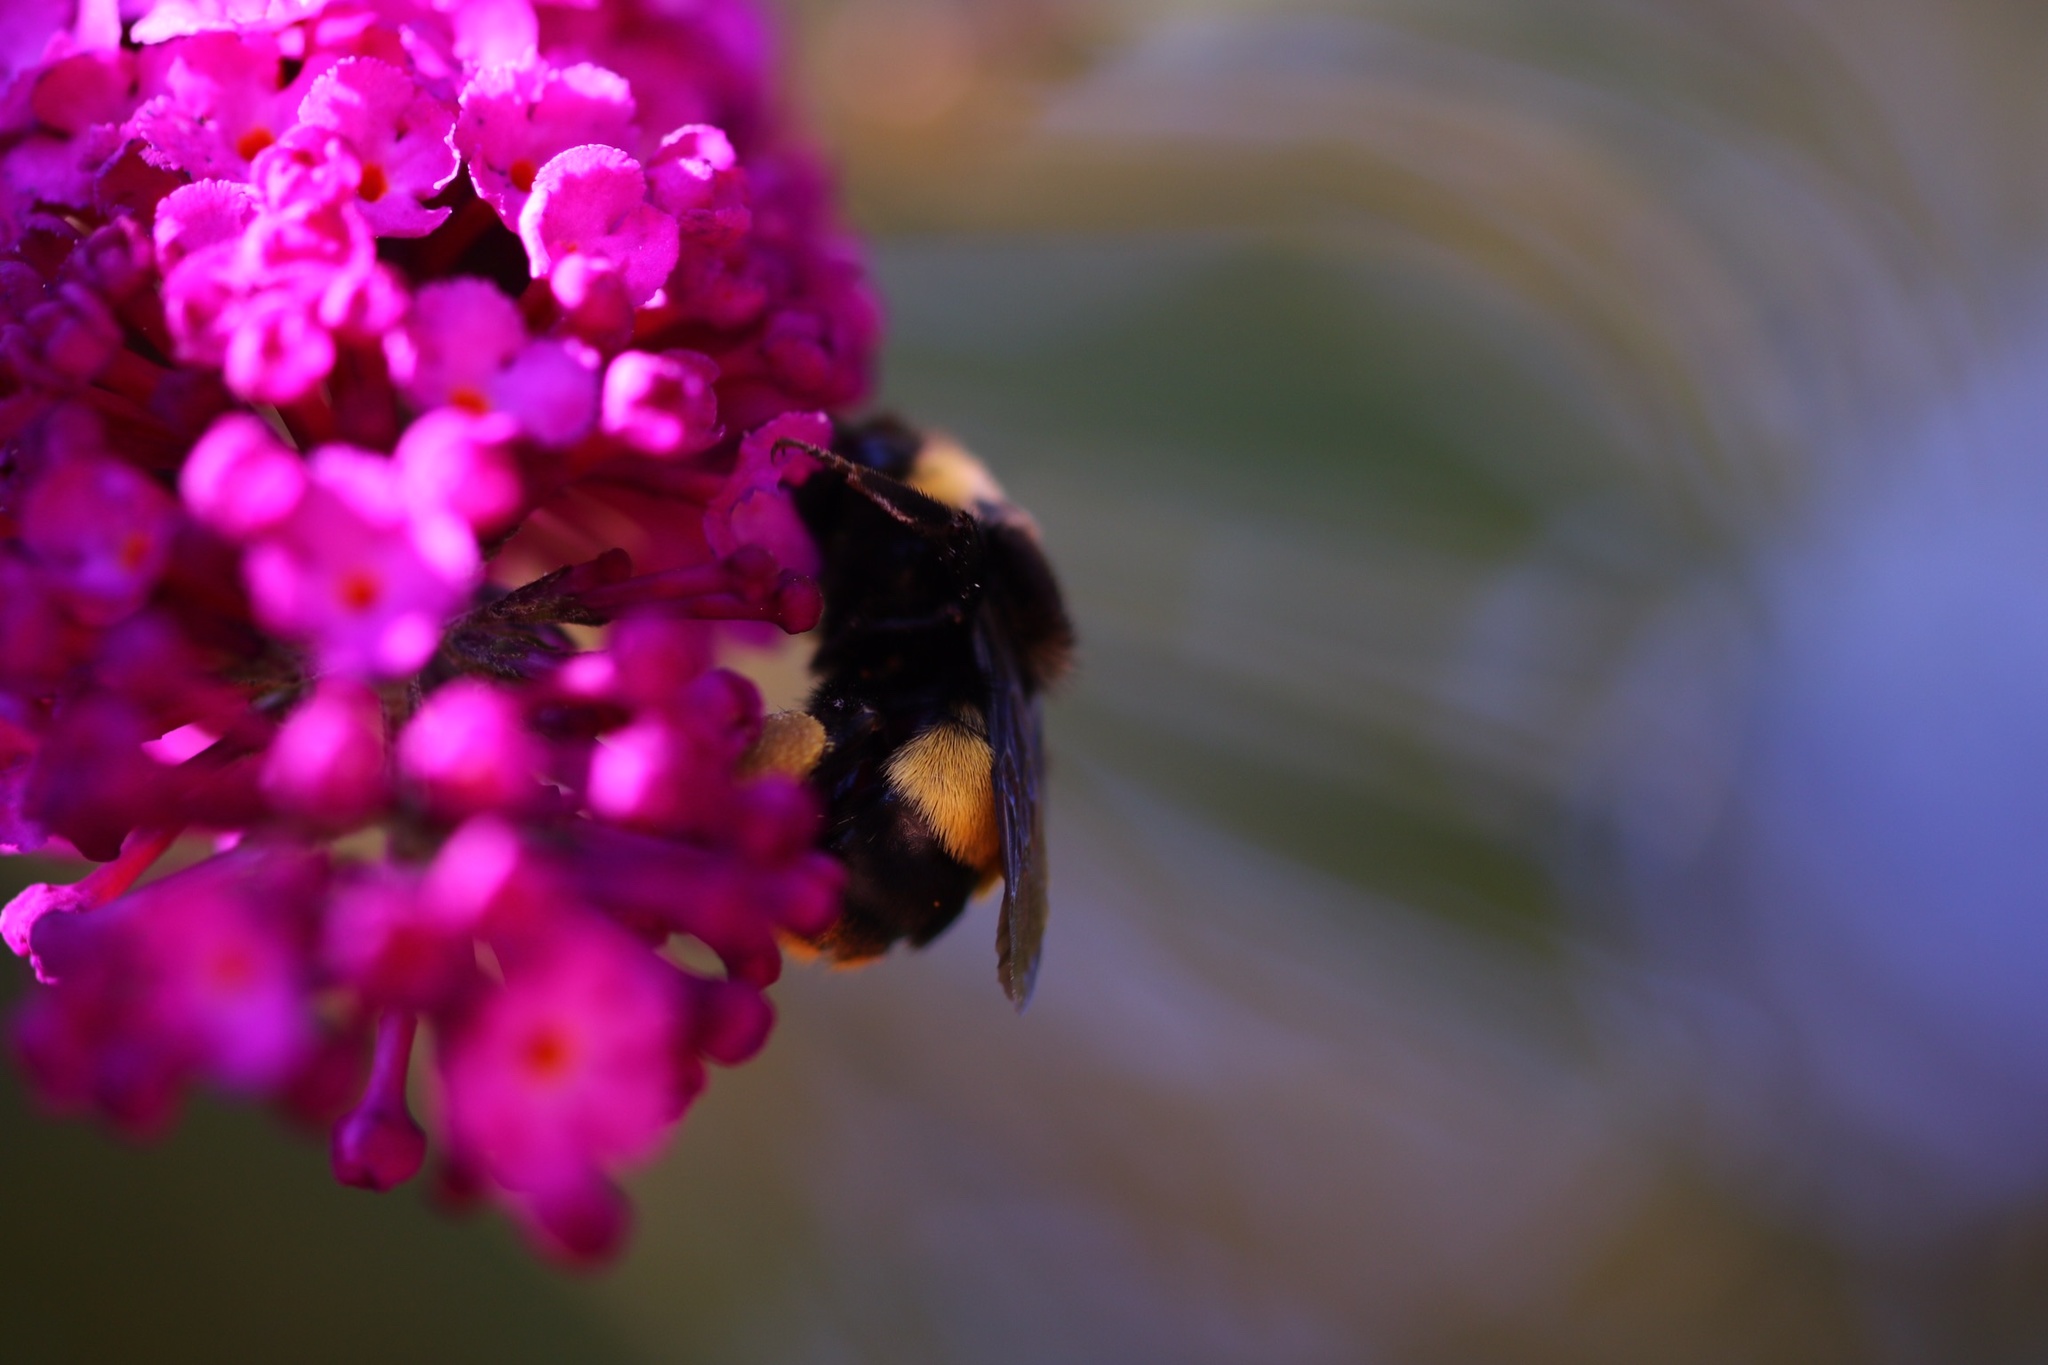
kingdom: Animalia
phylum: Arthropoda
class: Insecta
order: Hymenoptera
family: Apidae
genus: Bombus
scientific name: Bombus crotchii
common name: Crotch bumble bee
